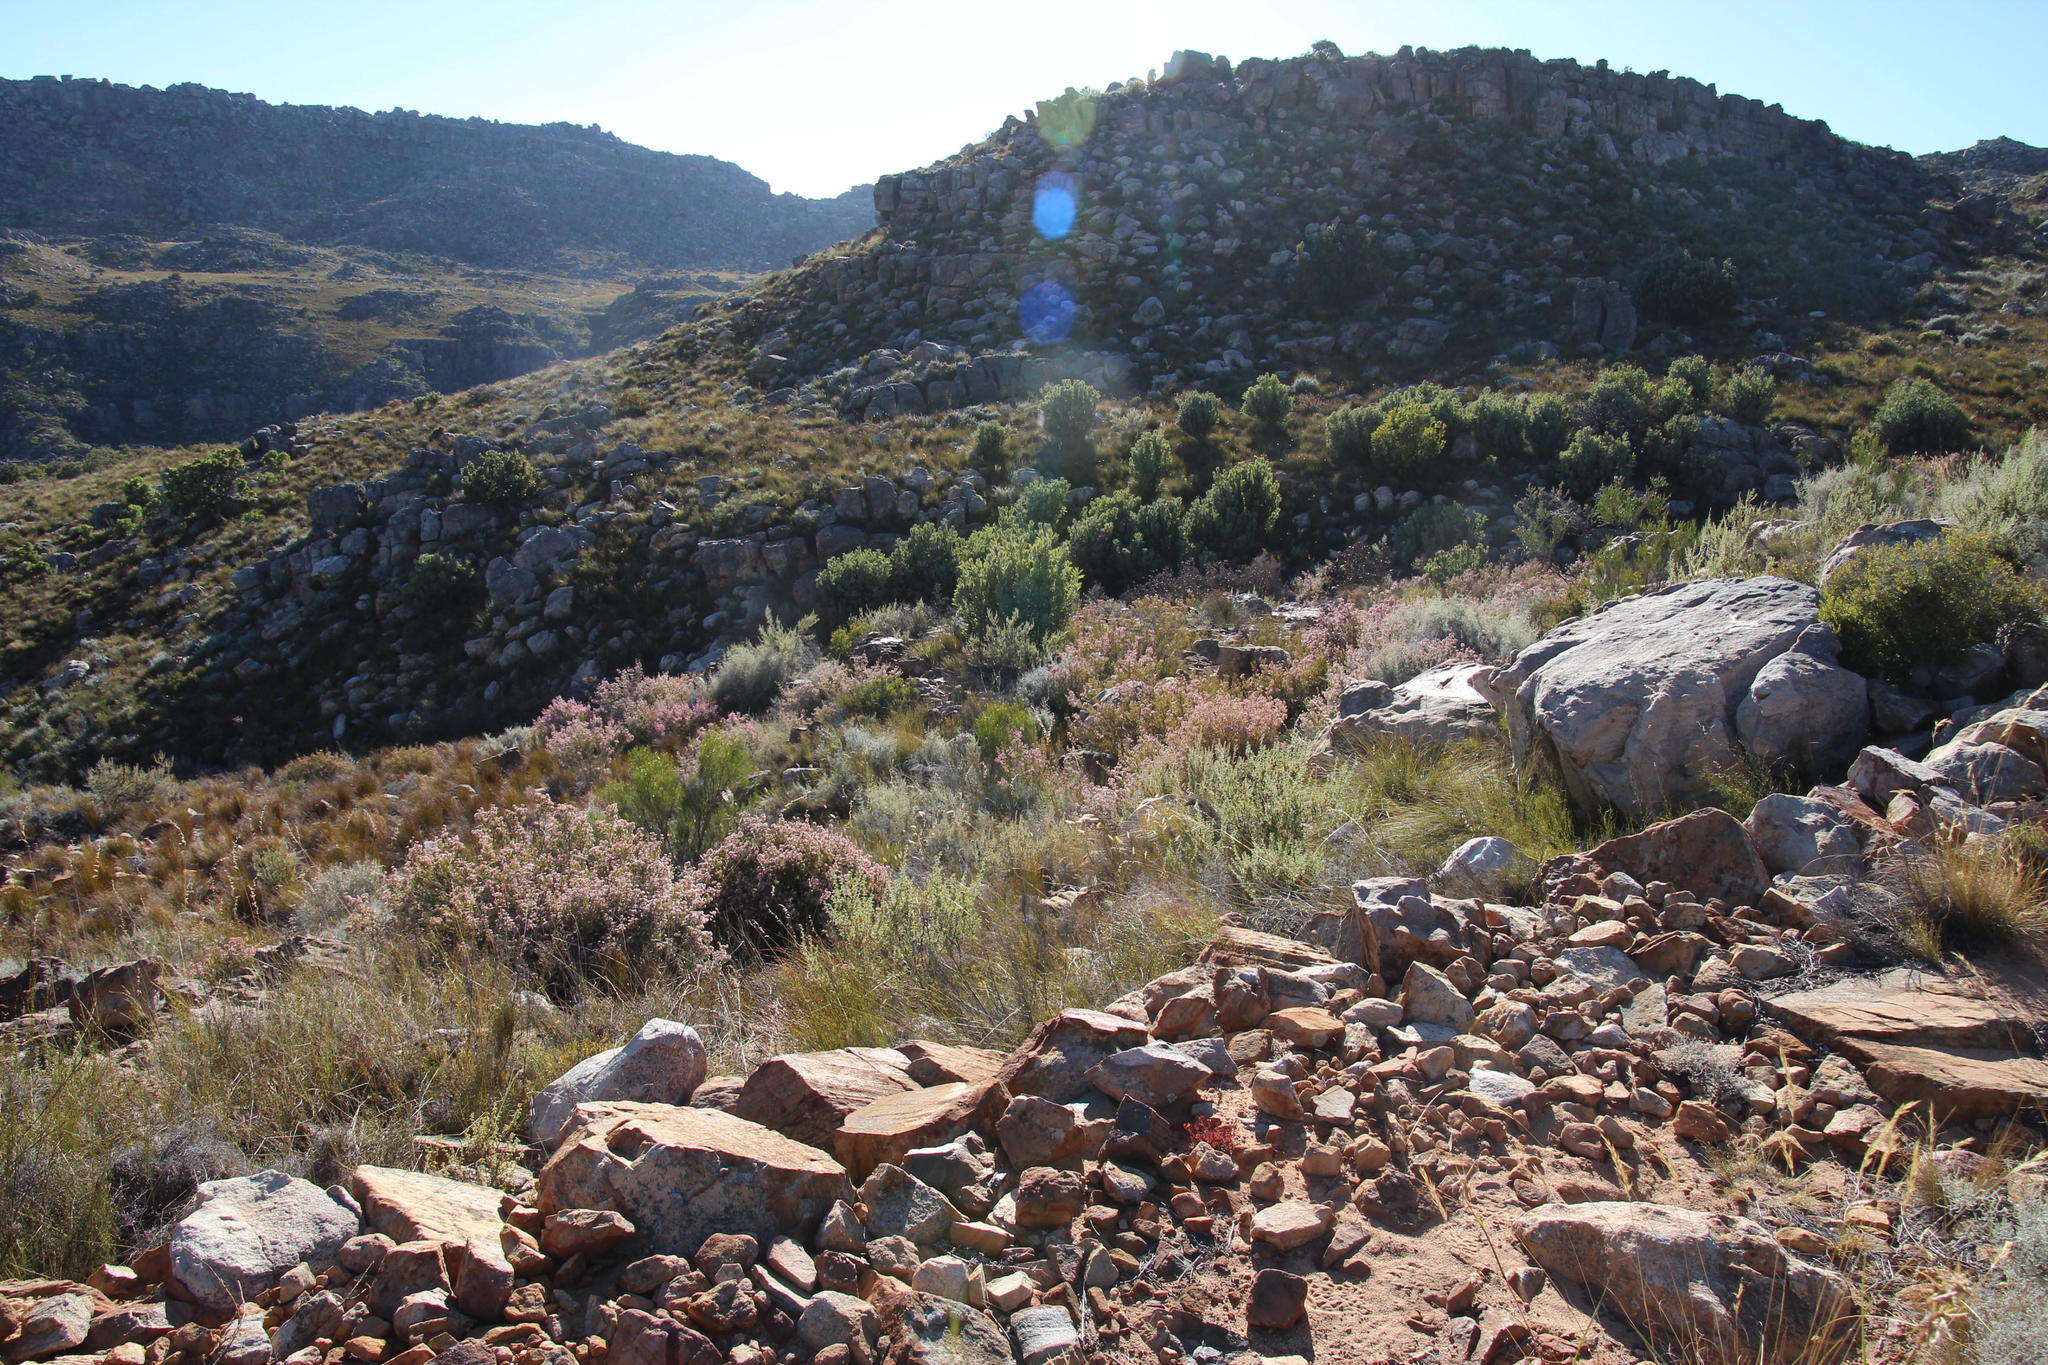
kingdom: Plantae
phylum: Tracheophyta
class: Magnoliopsida
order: Ericales
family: Ericaceae
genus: Erica
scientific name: Erica verecunda
